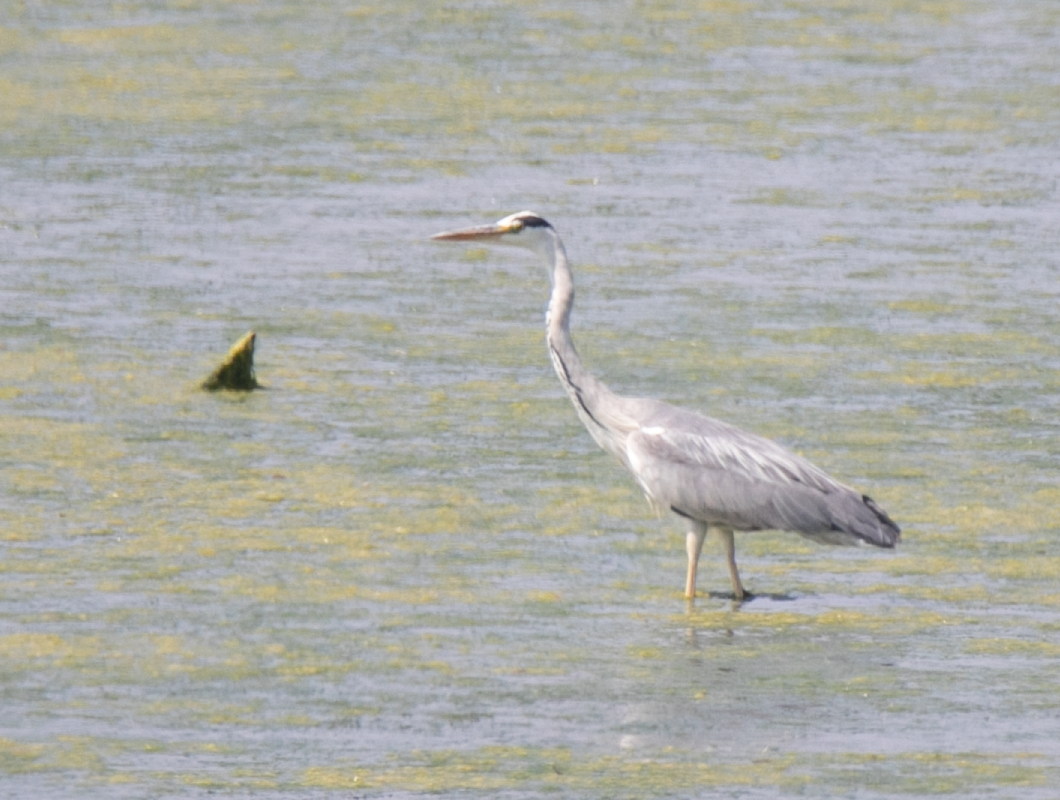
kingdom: Animalia
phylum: Chordata
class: Aves
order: Pelecaniformes
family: Ardeidae
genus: Ardea
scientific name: Ardea cinerea
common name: Grey heron
